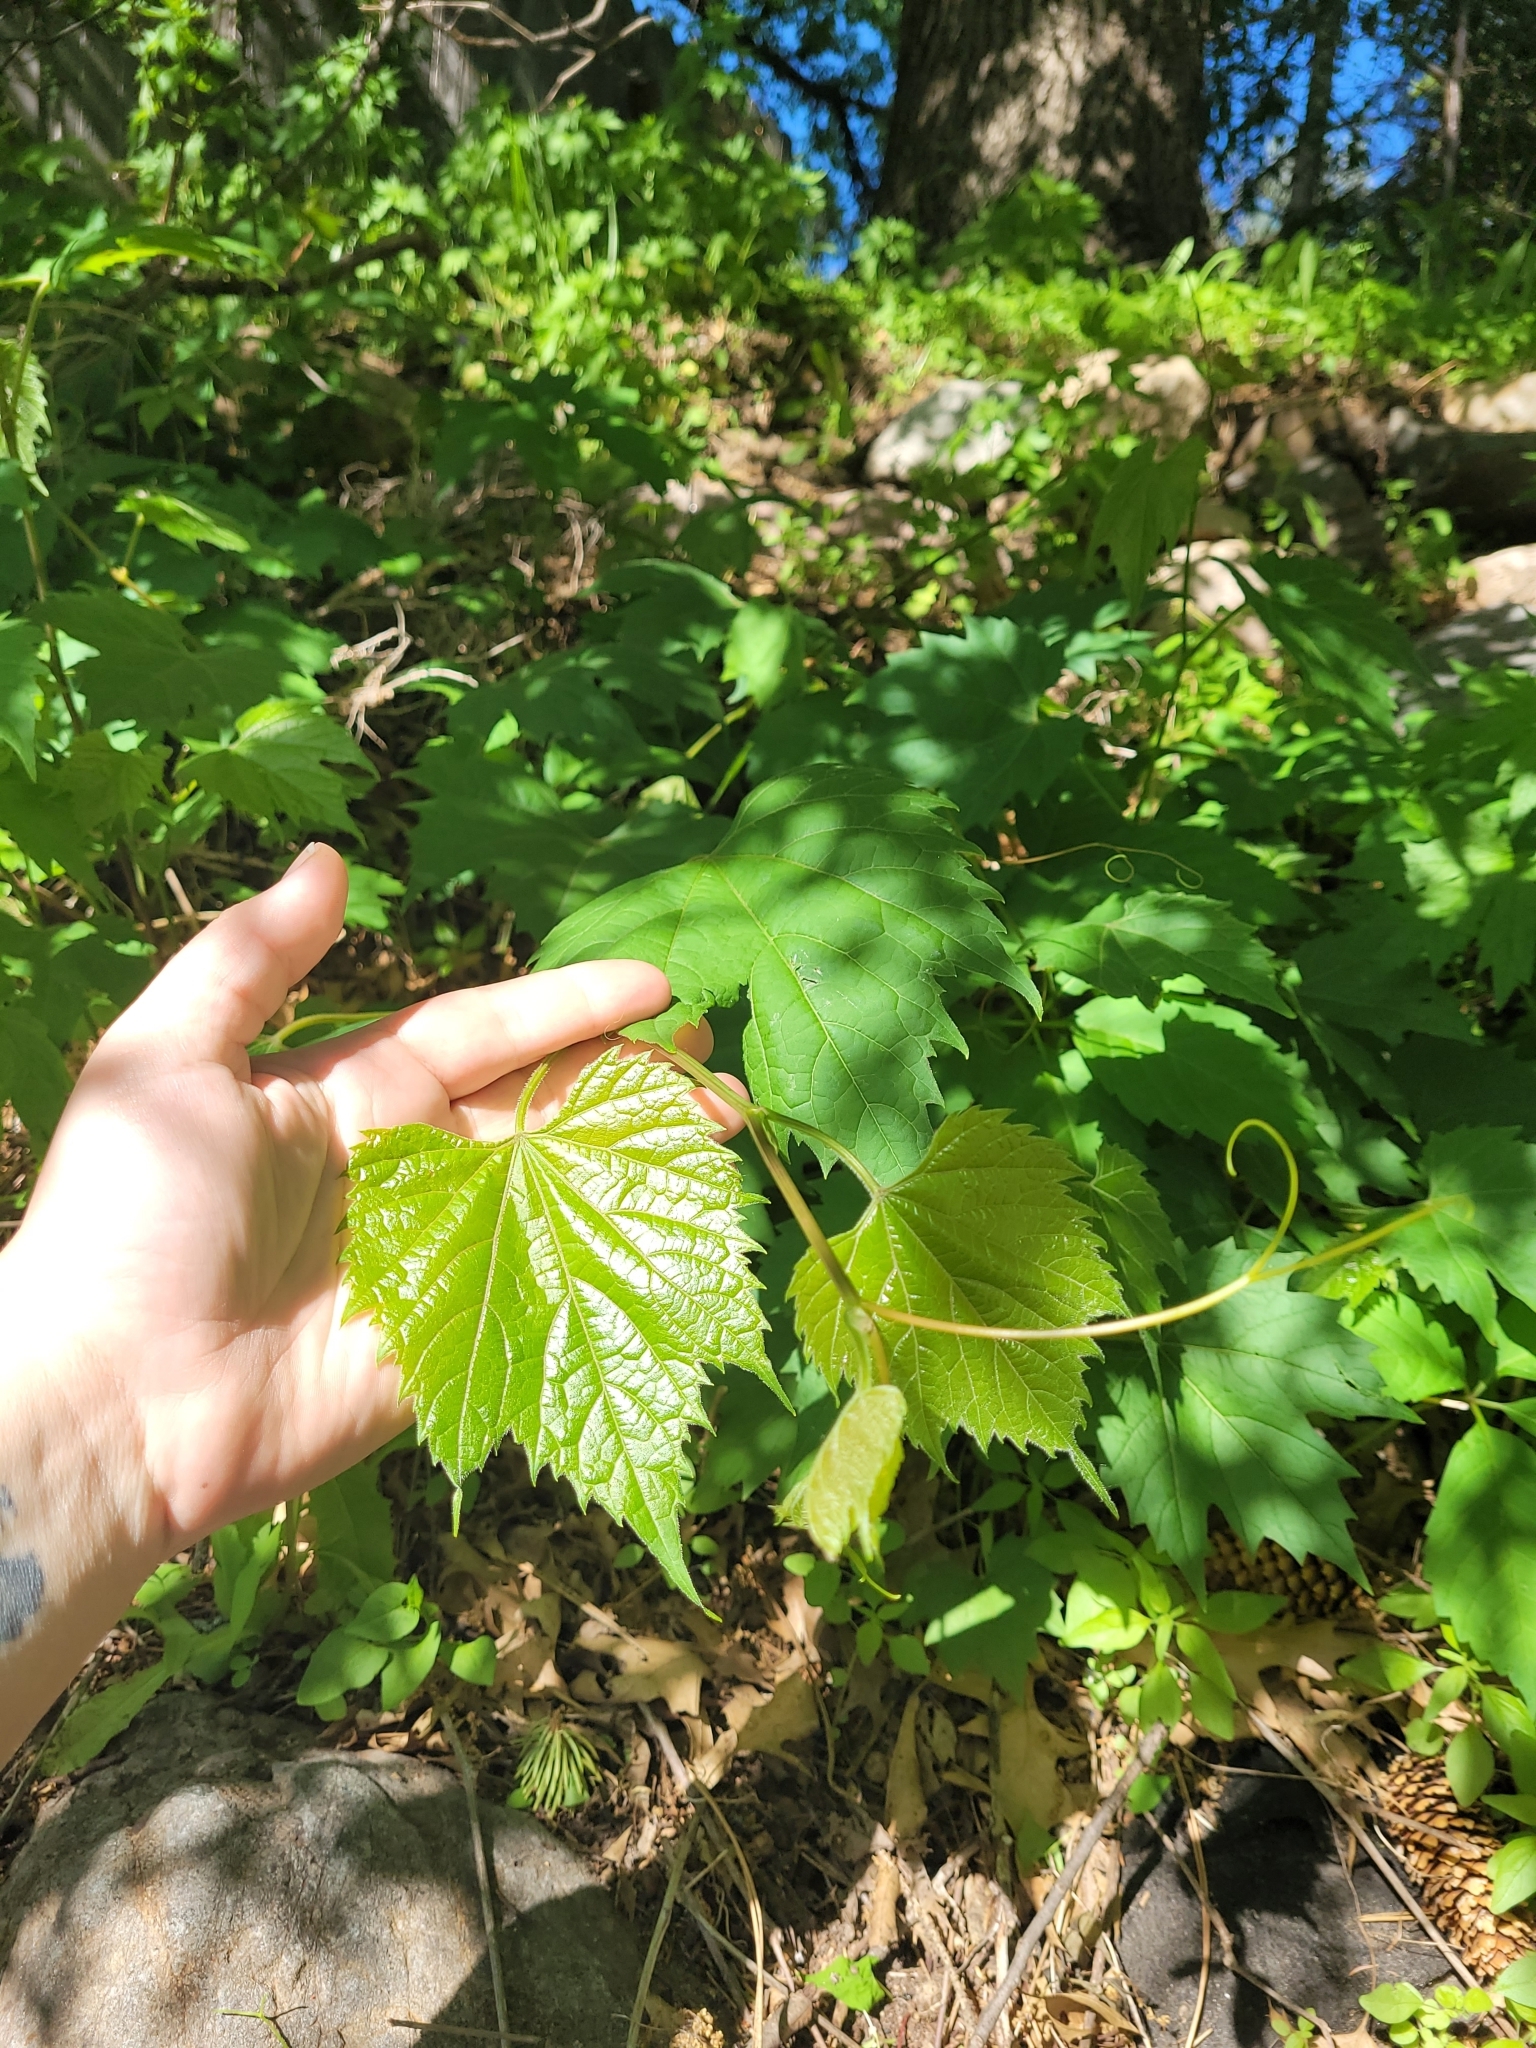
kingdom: Plantae
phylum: Tracheophyta
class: Magnoliopsida
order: Vitales
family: Vitaceae
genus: Vitis
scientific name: Vitis riparia
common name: Frost grape
